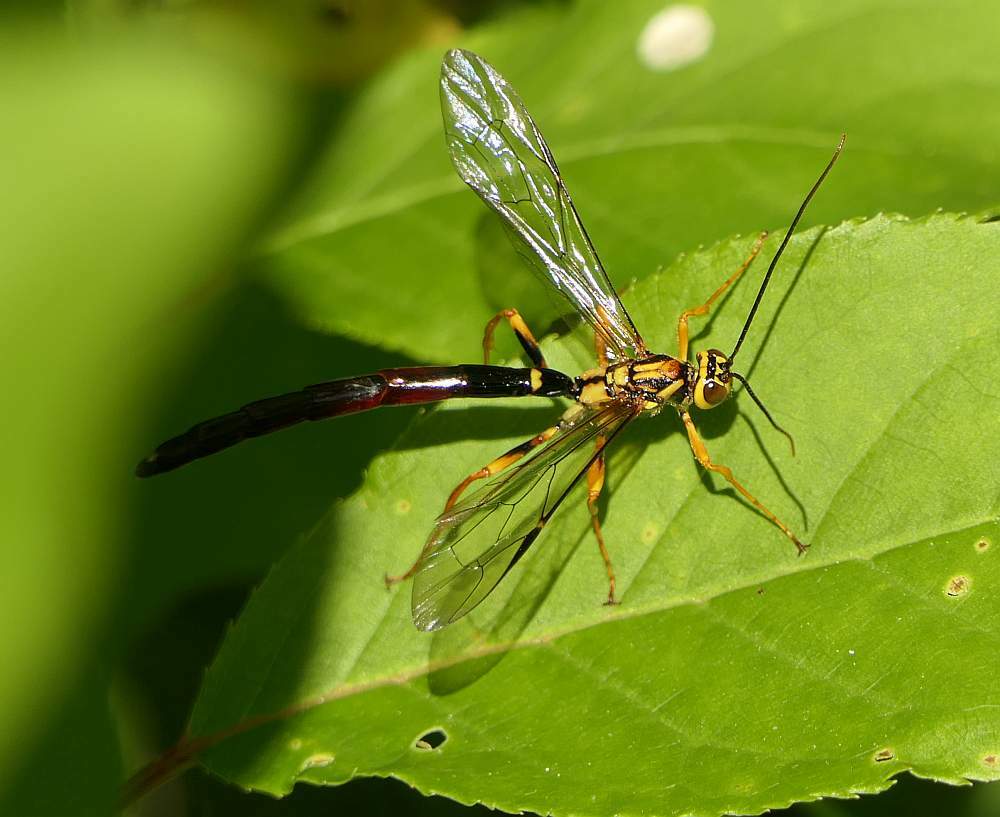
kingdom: Animalia
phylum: Arthropoda
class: Insecta
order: Hymenoptera
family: Ichneumonidae
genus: Megarhyssa
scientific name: Megarhyssa atrata
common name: Black giant ichneumonid wasp
